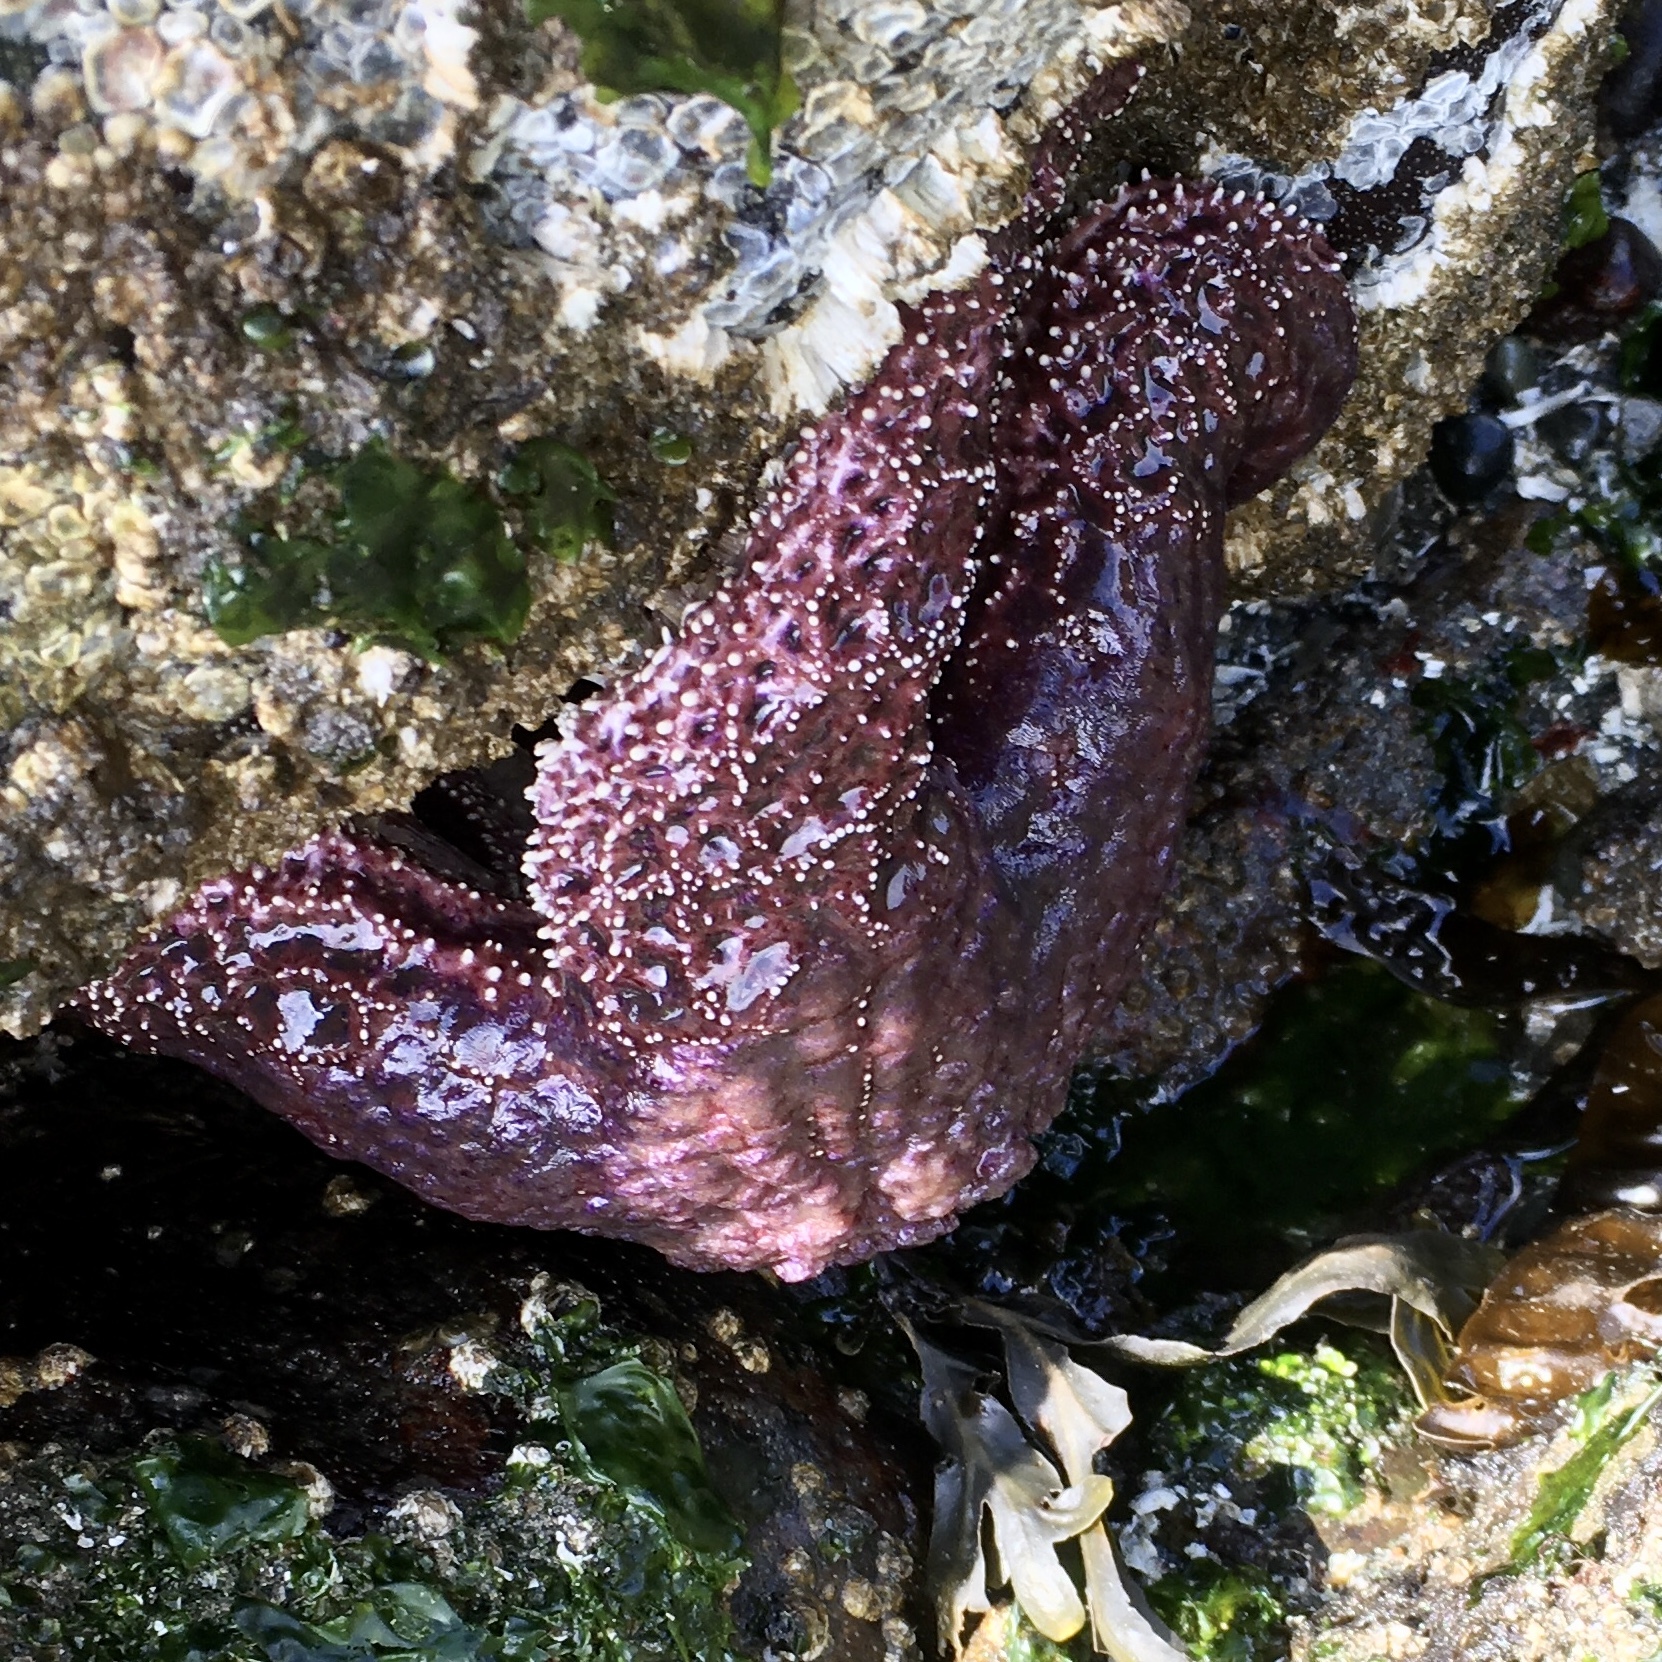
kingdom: Animalia
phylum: Echinodermata
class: Asteroidea
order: Forcipulatida
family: Asteriidae
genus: Pisaster
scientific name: Pisaster ochraceus
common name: Ochre stars
